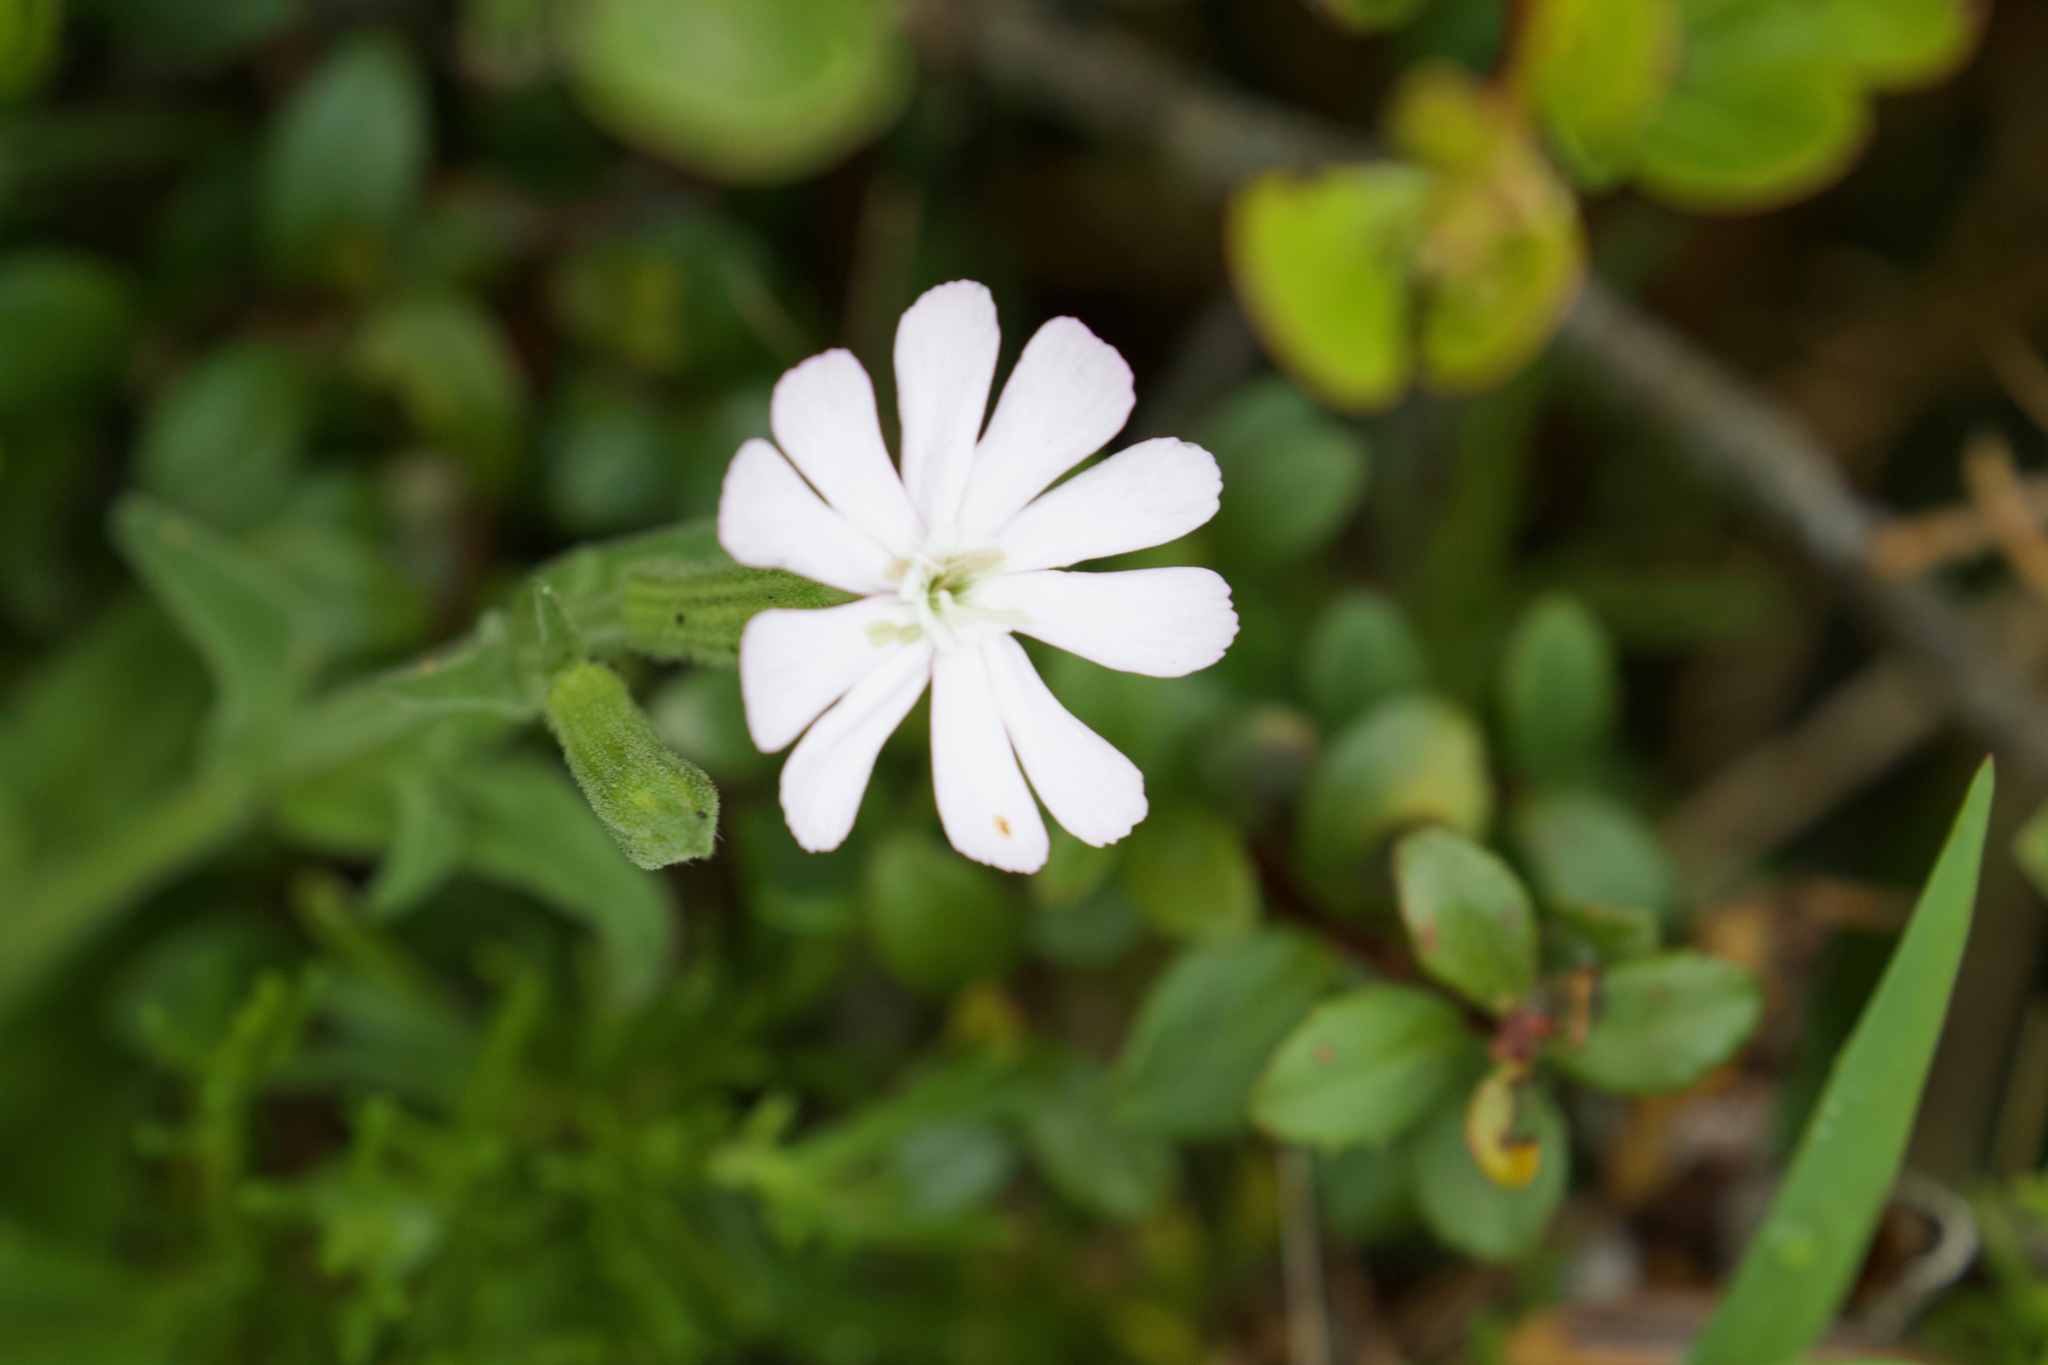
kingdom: Plantae
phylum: Tracheophyta
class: Magnoliopsida
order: Caryophyllales
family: Caryophyllaceae
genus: Silene
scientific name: Silene undulata
